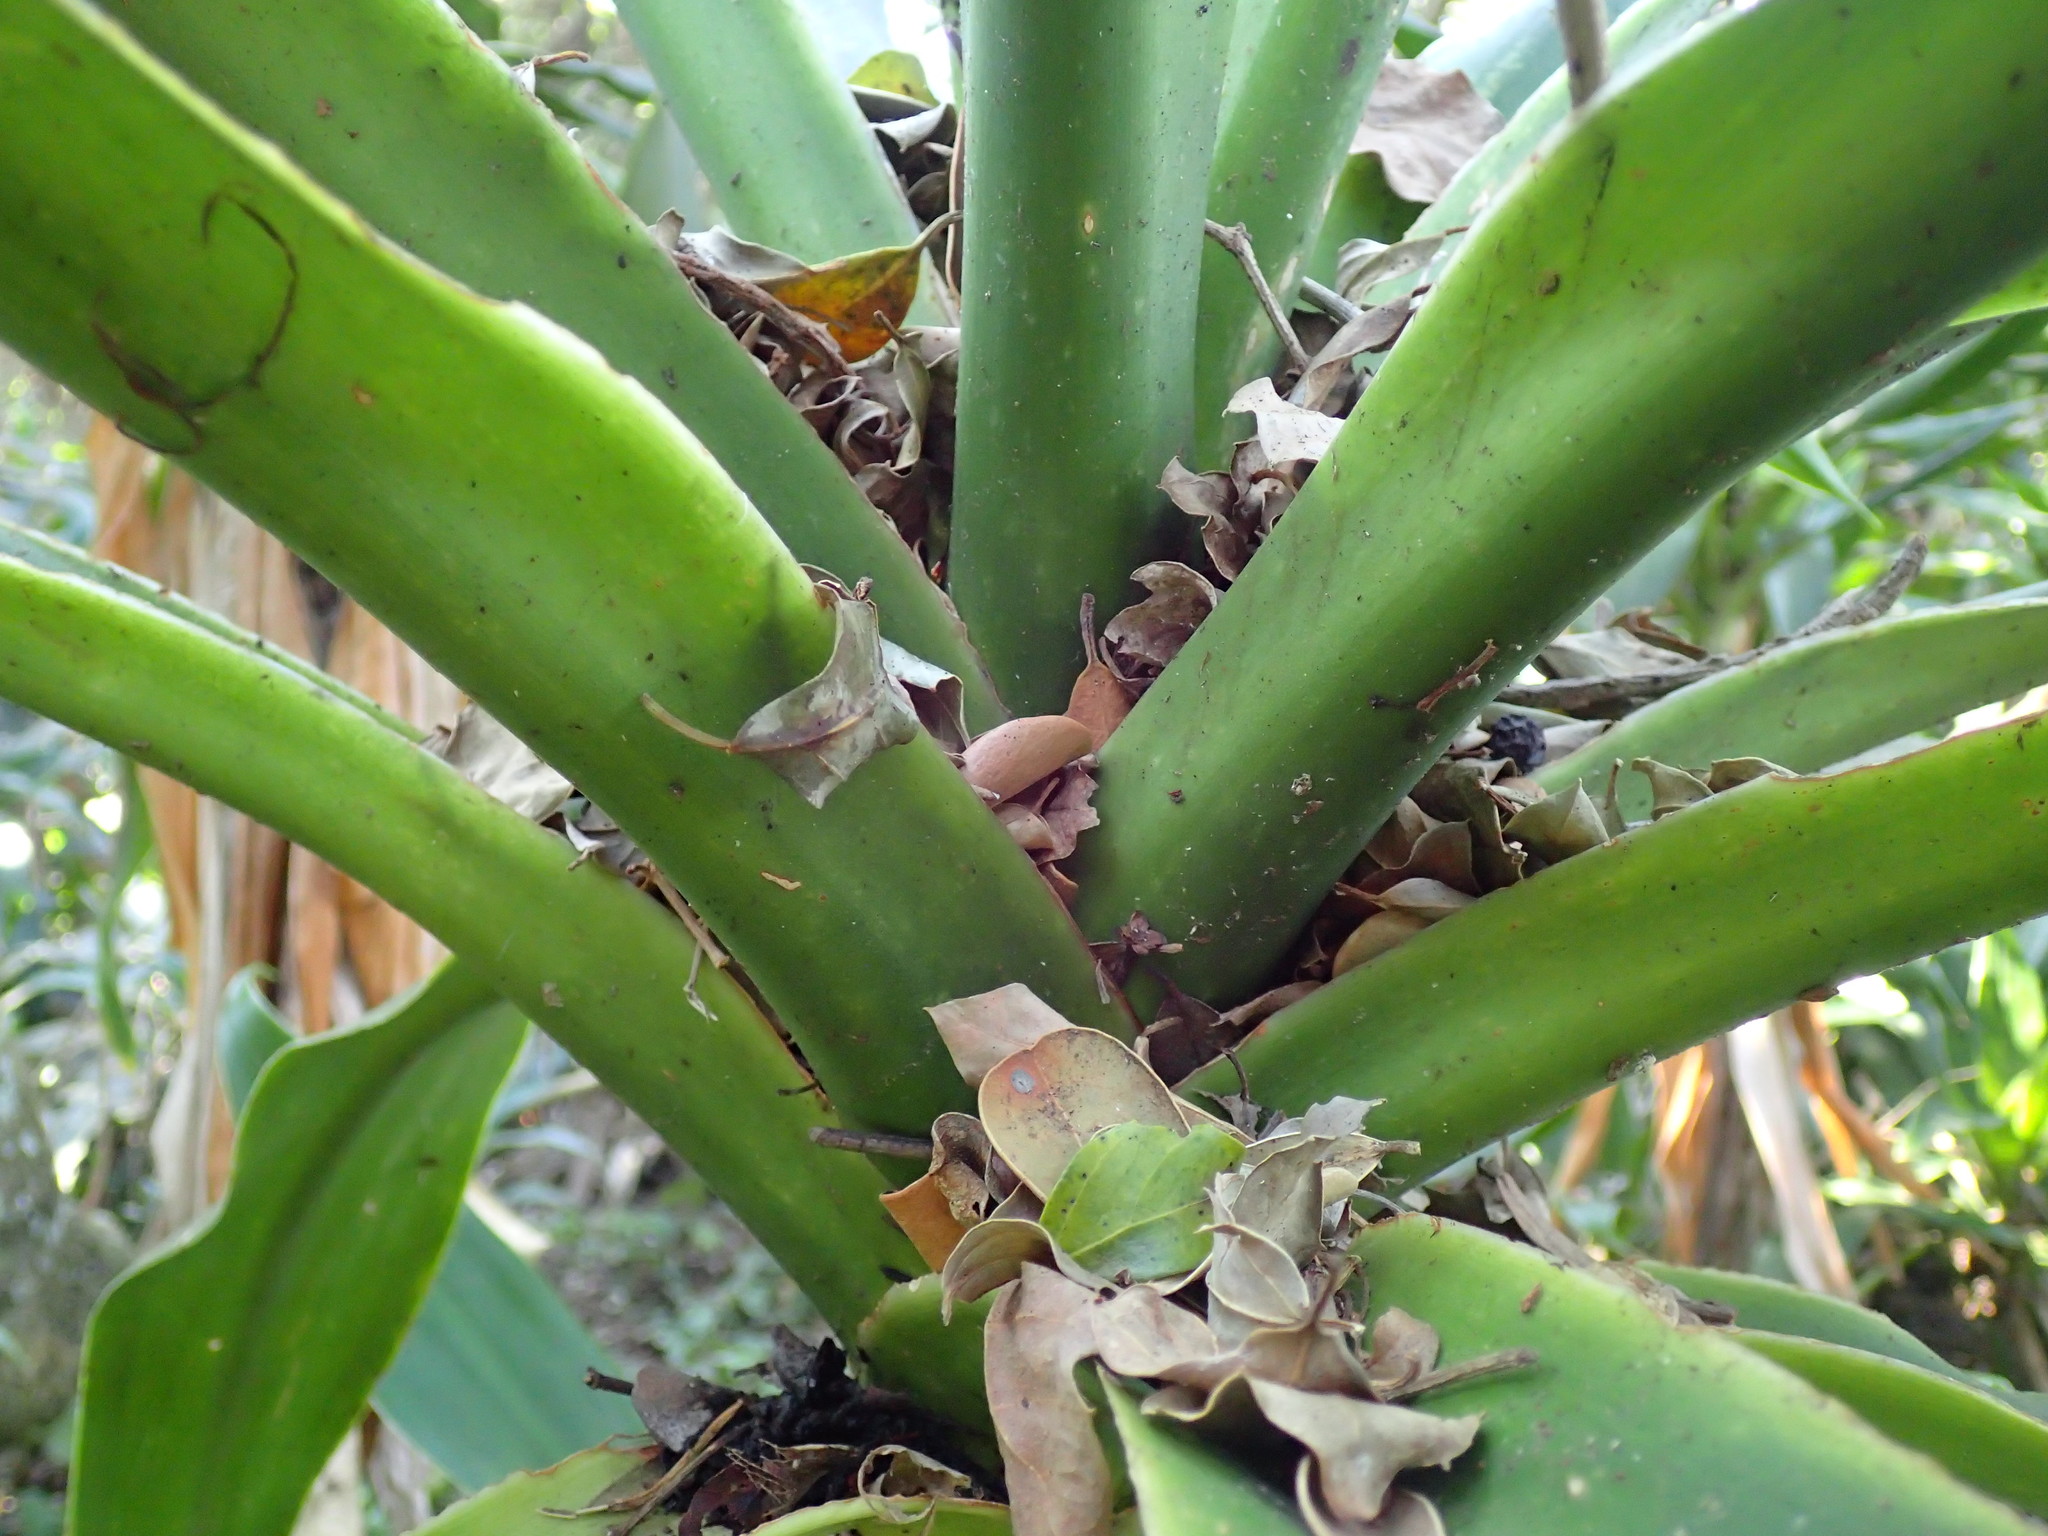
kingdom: Animalia
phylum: Arthropoda
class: Insecta
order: Hymenoptera
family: Formicidae
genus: Lepisiota
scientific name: Lepisiota capensis
